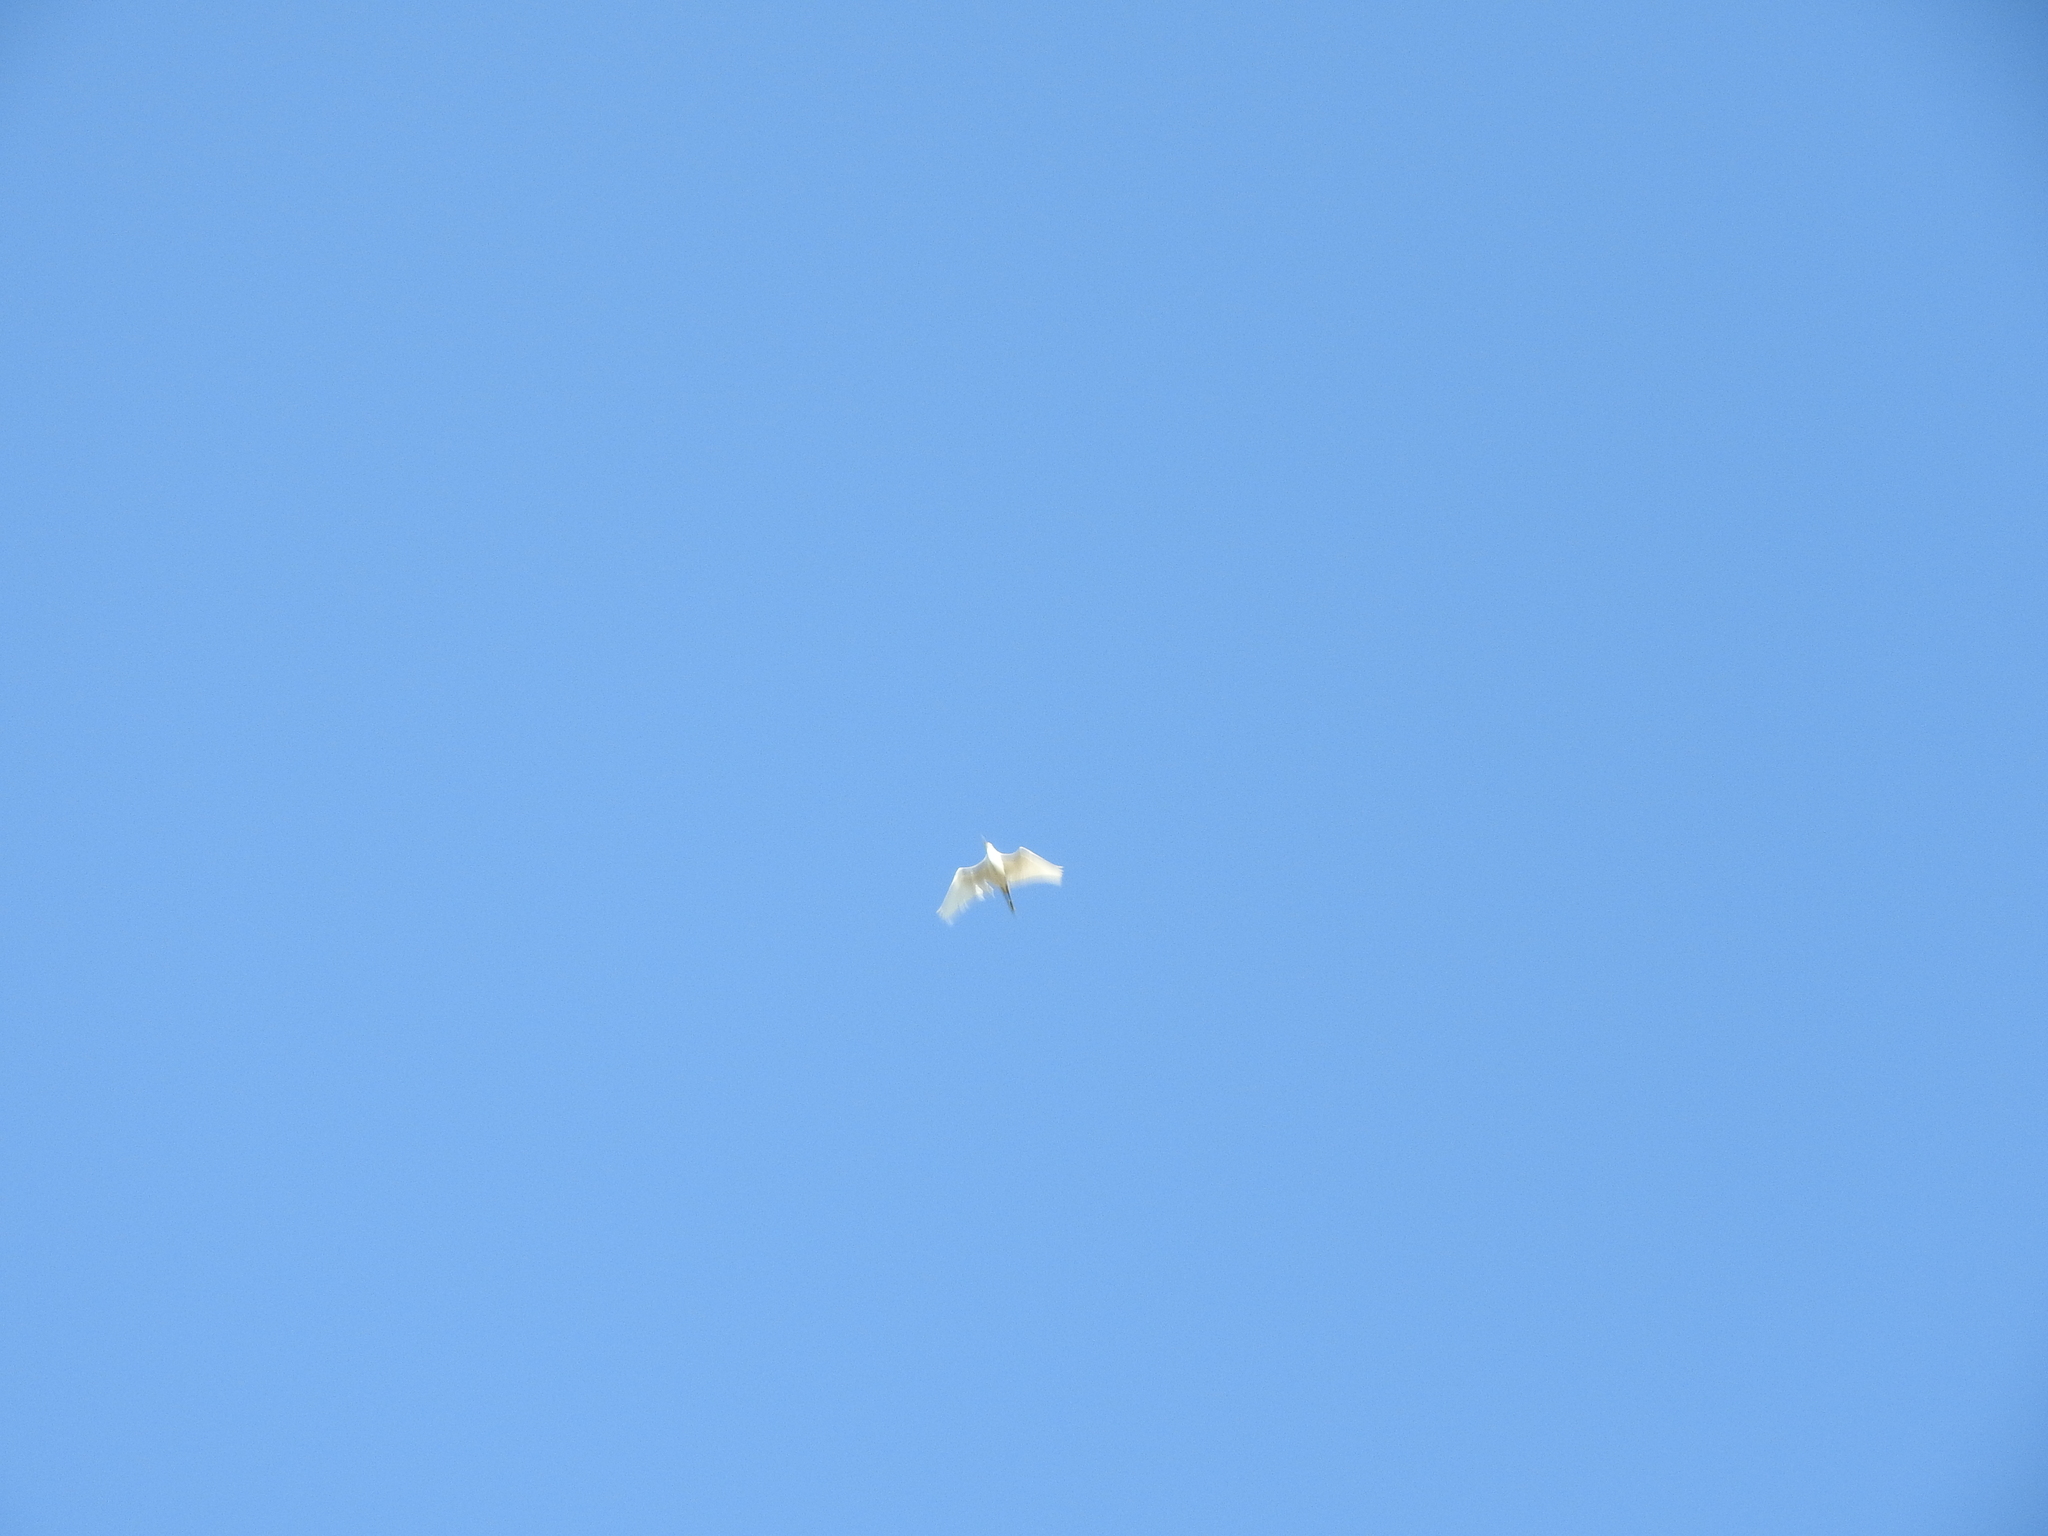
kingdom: Animalia
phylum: Chordata
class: Aves
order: Pelecaniformes
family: Ardeidae
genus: Bubulcus
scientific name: Bubulcus ibis
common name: Cattle egret
